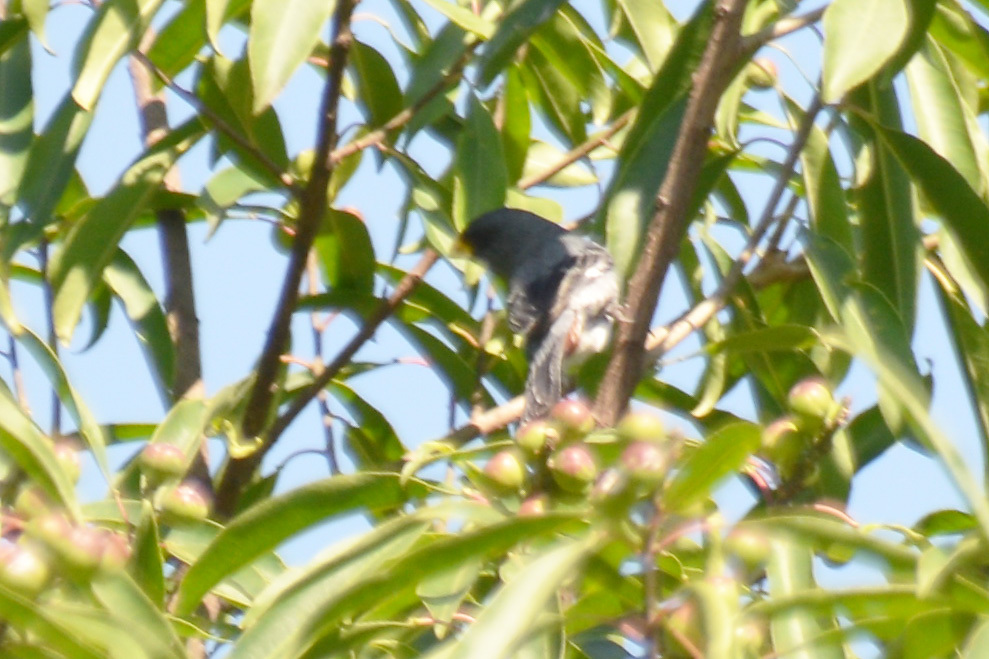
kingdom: Animalia
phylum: Chordata
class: Aves
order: Passeriformes
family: Thraupidae
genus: Catamenia
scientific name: Catamenia analis
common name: Band-tailed seedeater
